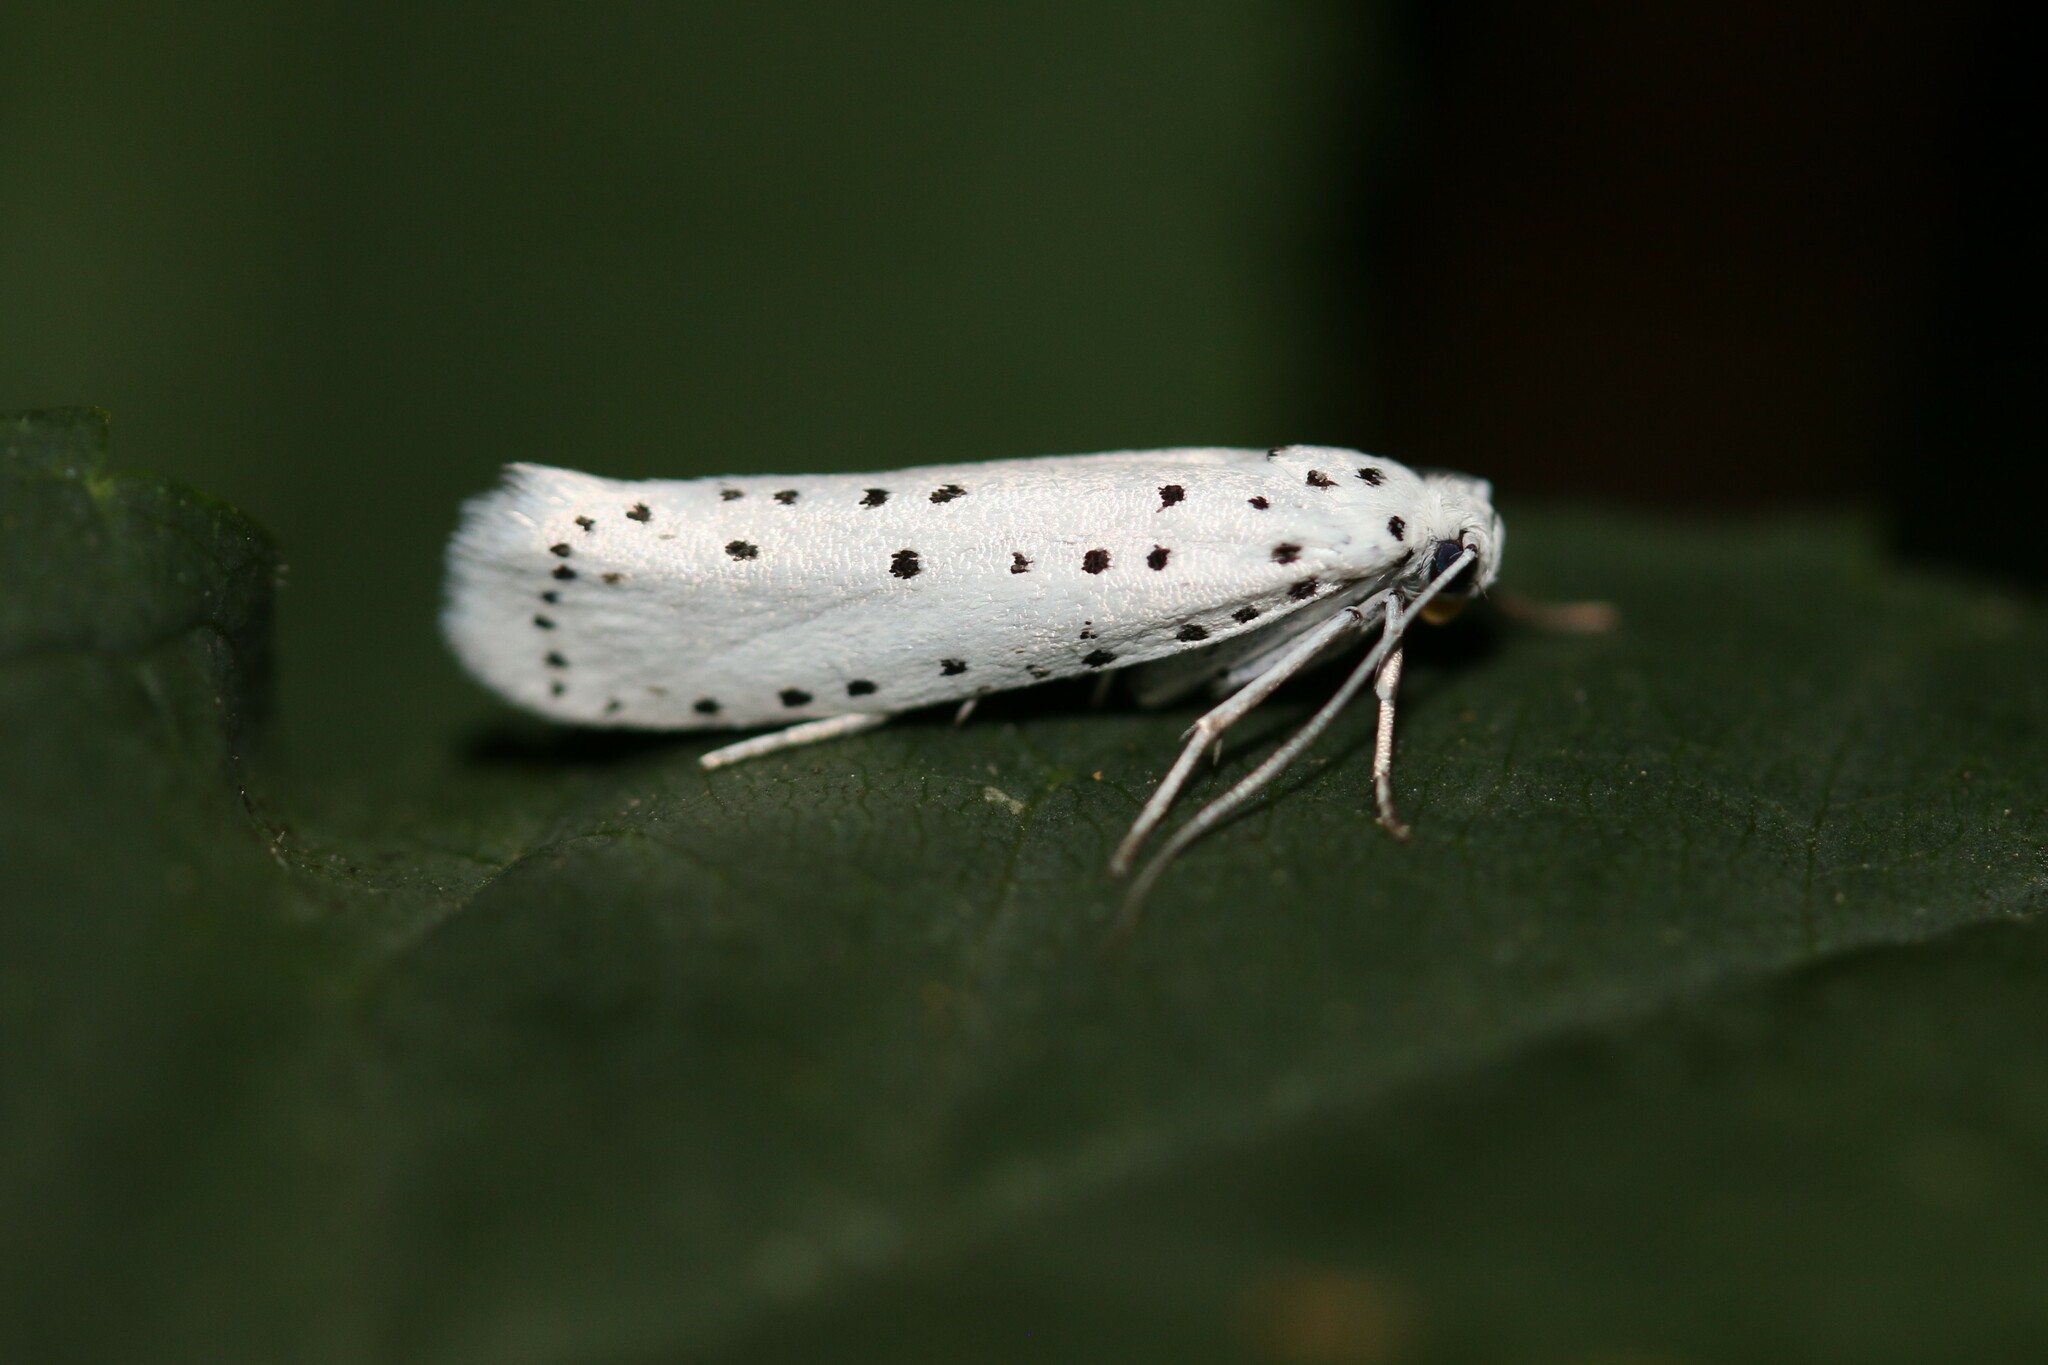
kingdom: Animalia
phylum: Arthropoda
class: Insecta
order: Lepidoptera
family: Yponomeutidae
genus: Yponomeuta
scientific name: Yponomeuta
